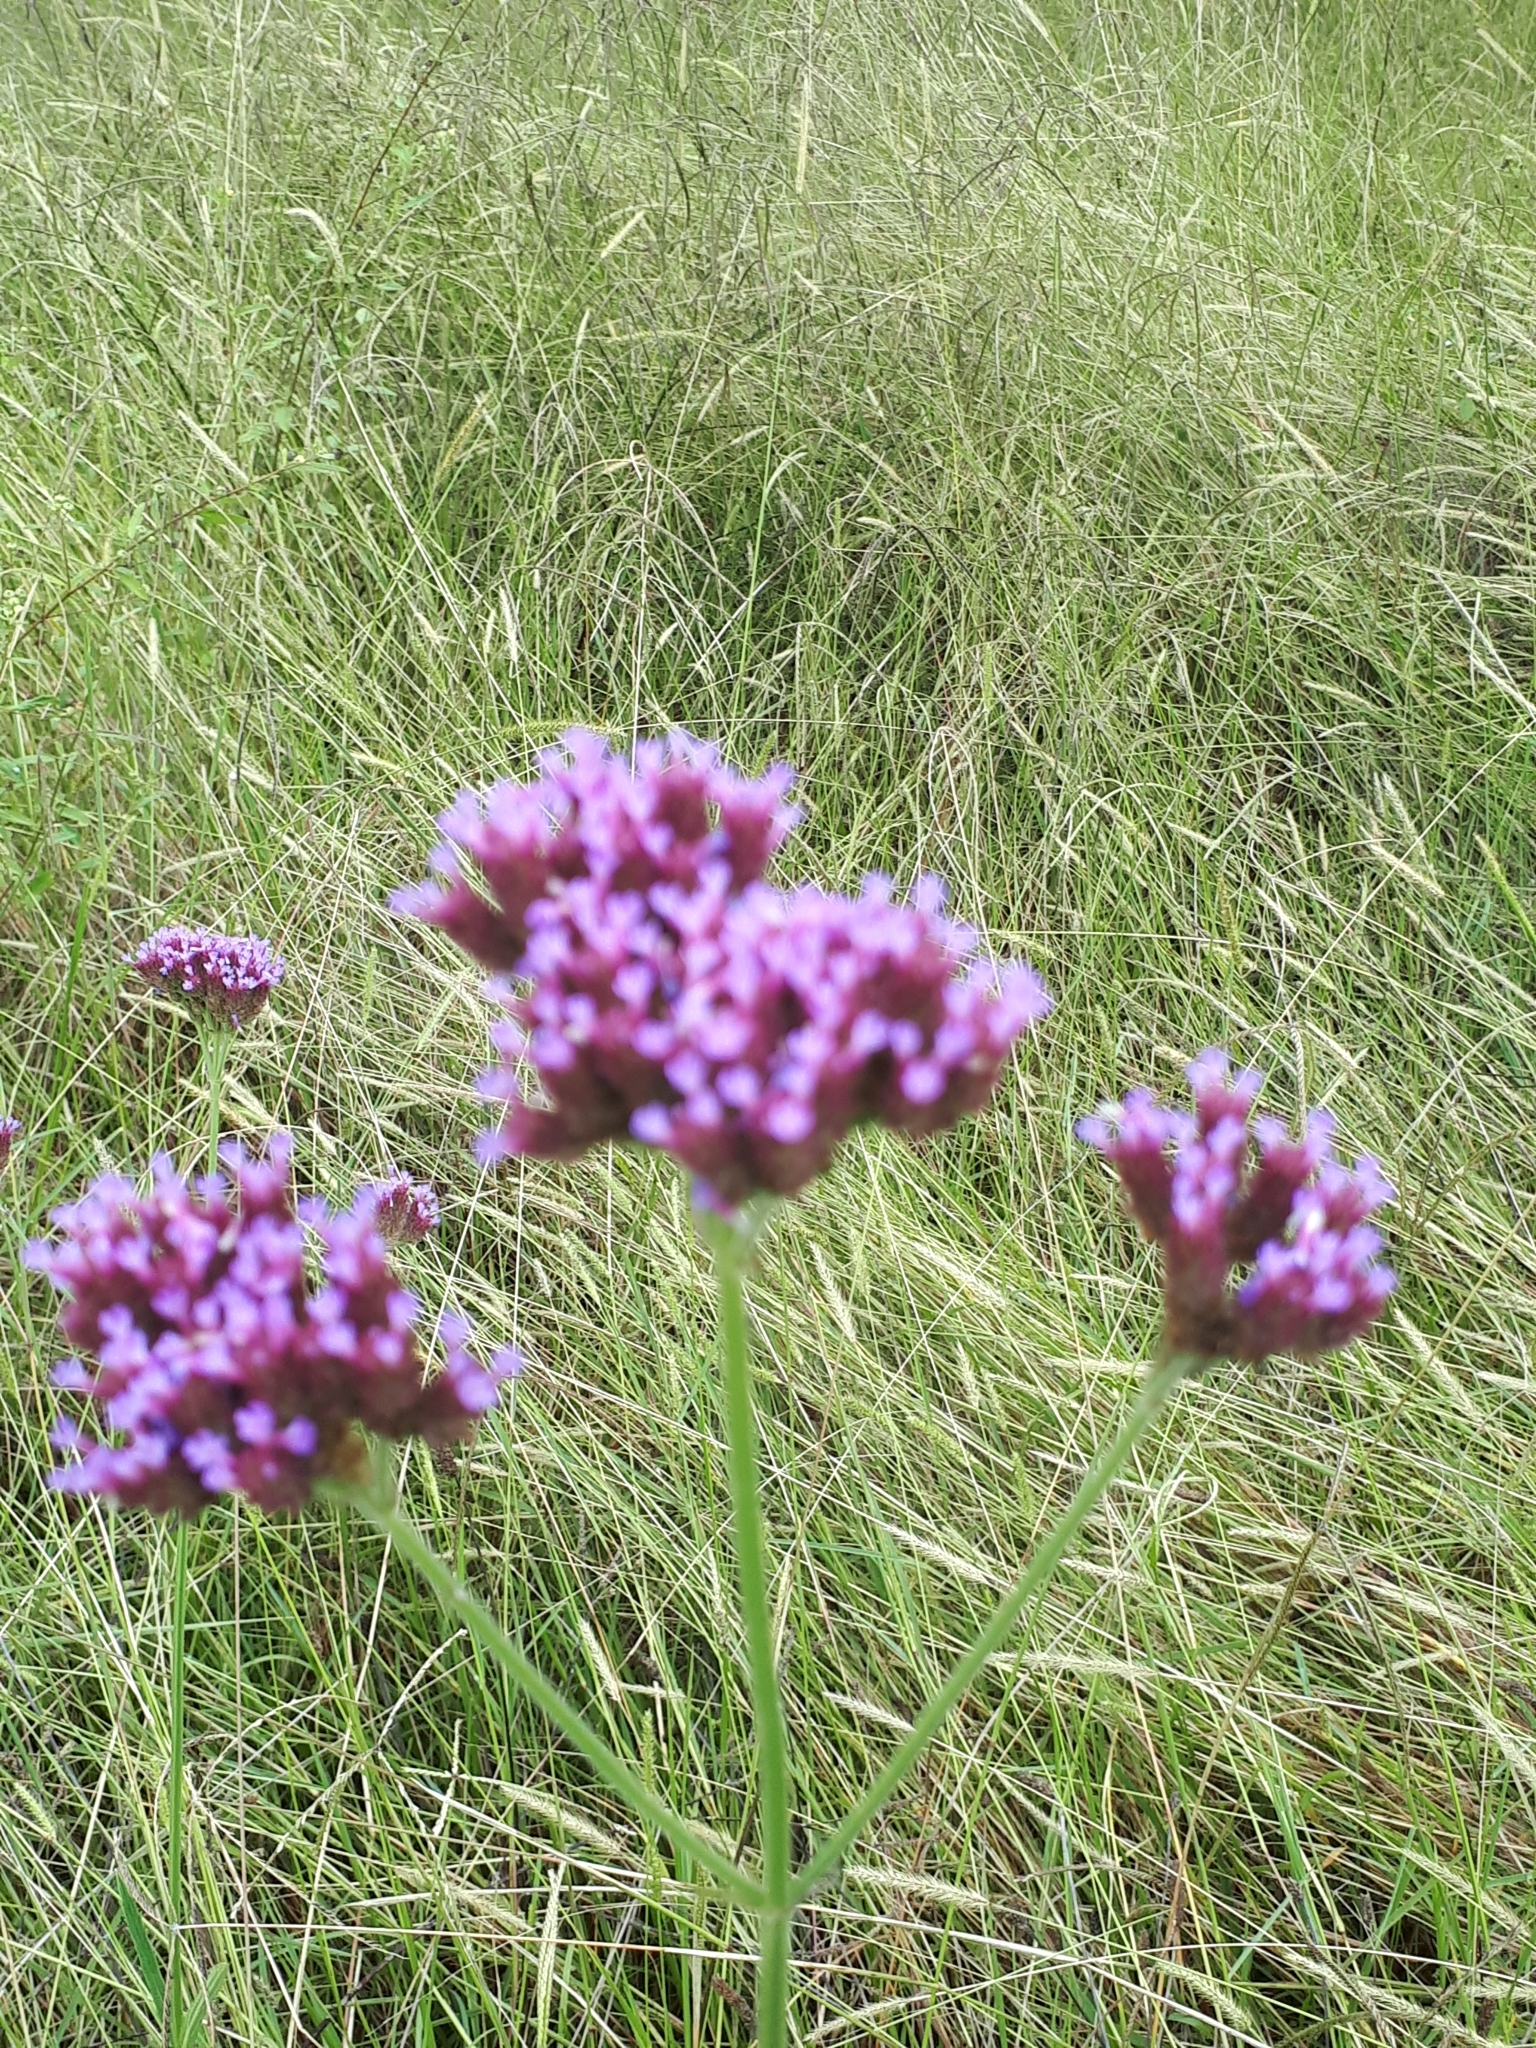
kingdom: Plantae
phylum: Tracheophyta
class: Magnoliopsida
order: Lamiales
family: Verbenaceae
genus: Verbena
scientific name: Verbena bonariensis
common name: Purpletop vervain
